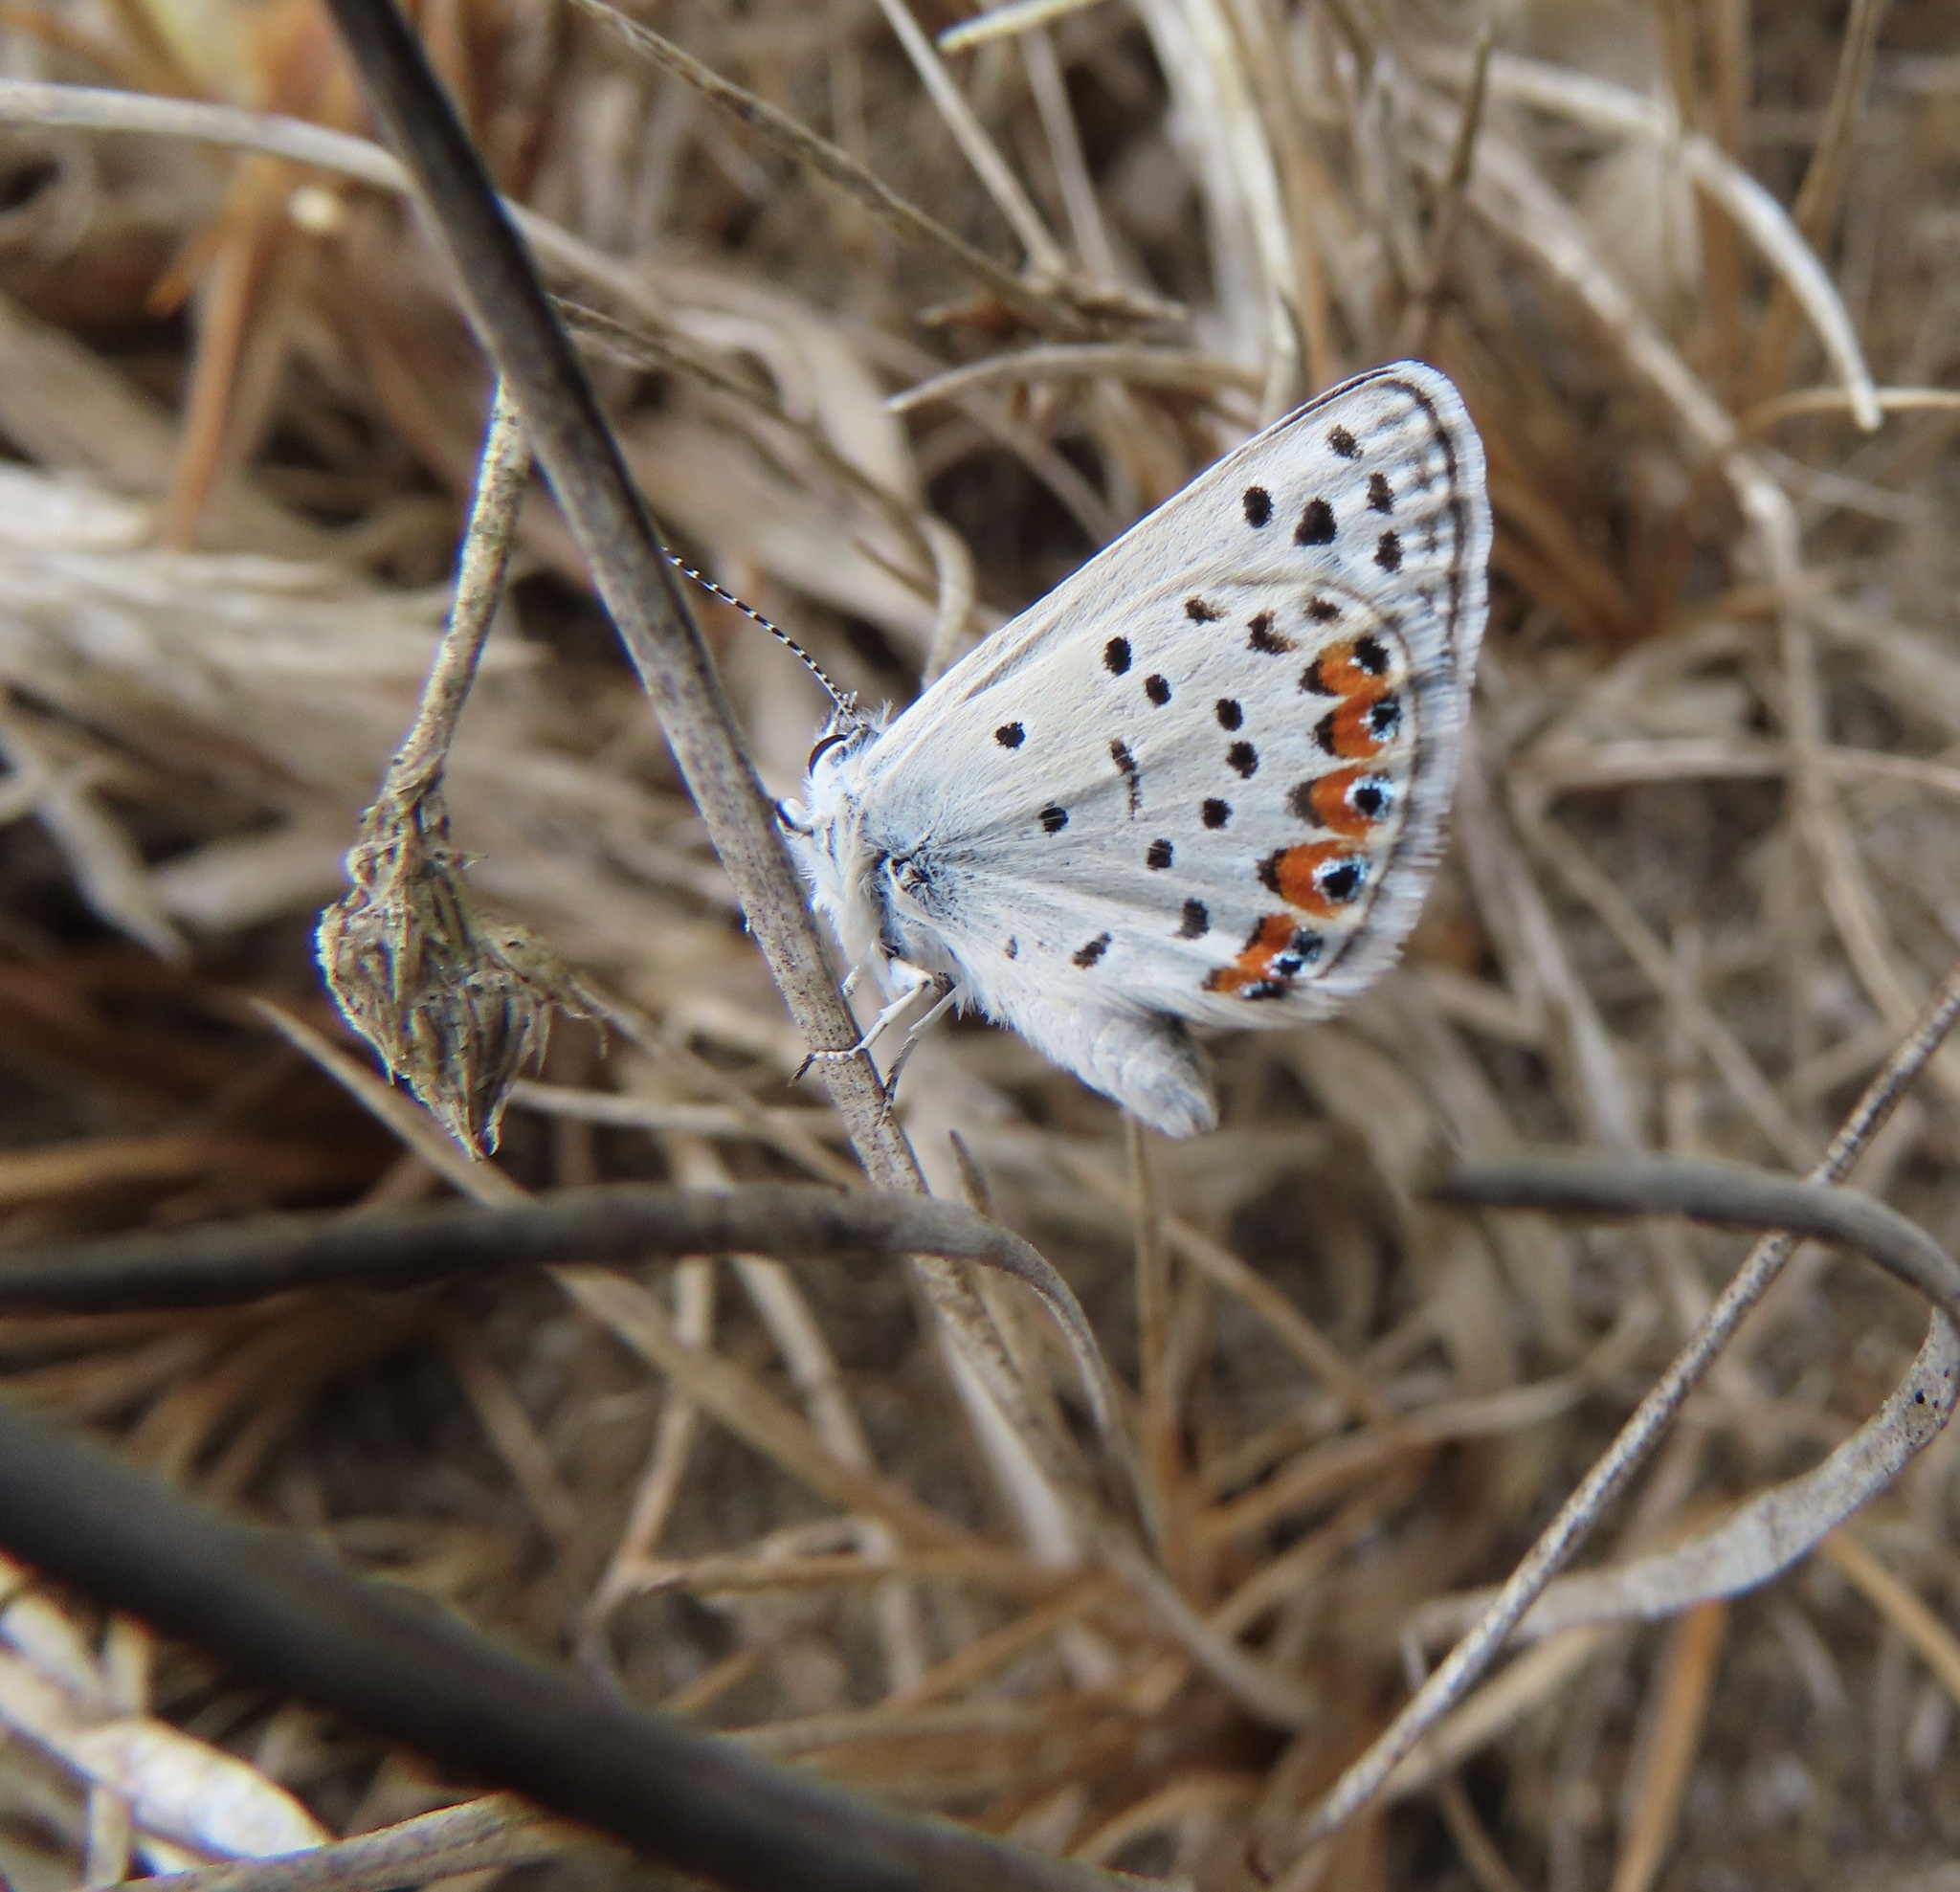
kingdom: Animalia
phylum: Arthropoda
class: Insecta
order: Lepidoptera
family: Lycaenidae
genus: Icaricia
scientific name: Icaricia acmon
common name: Acmon blue
